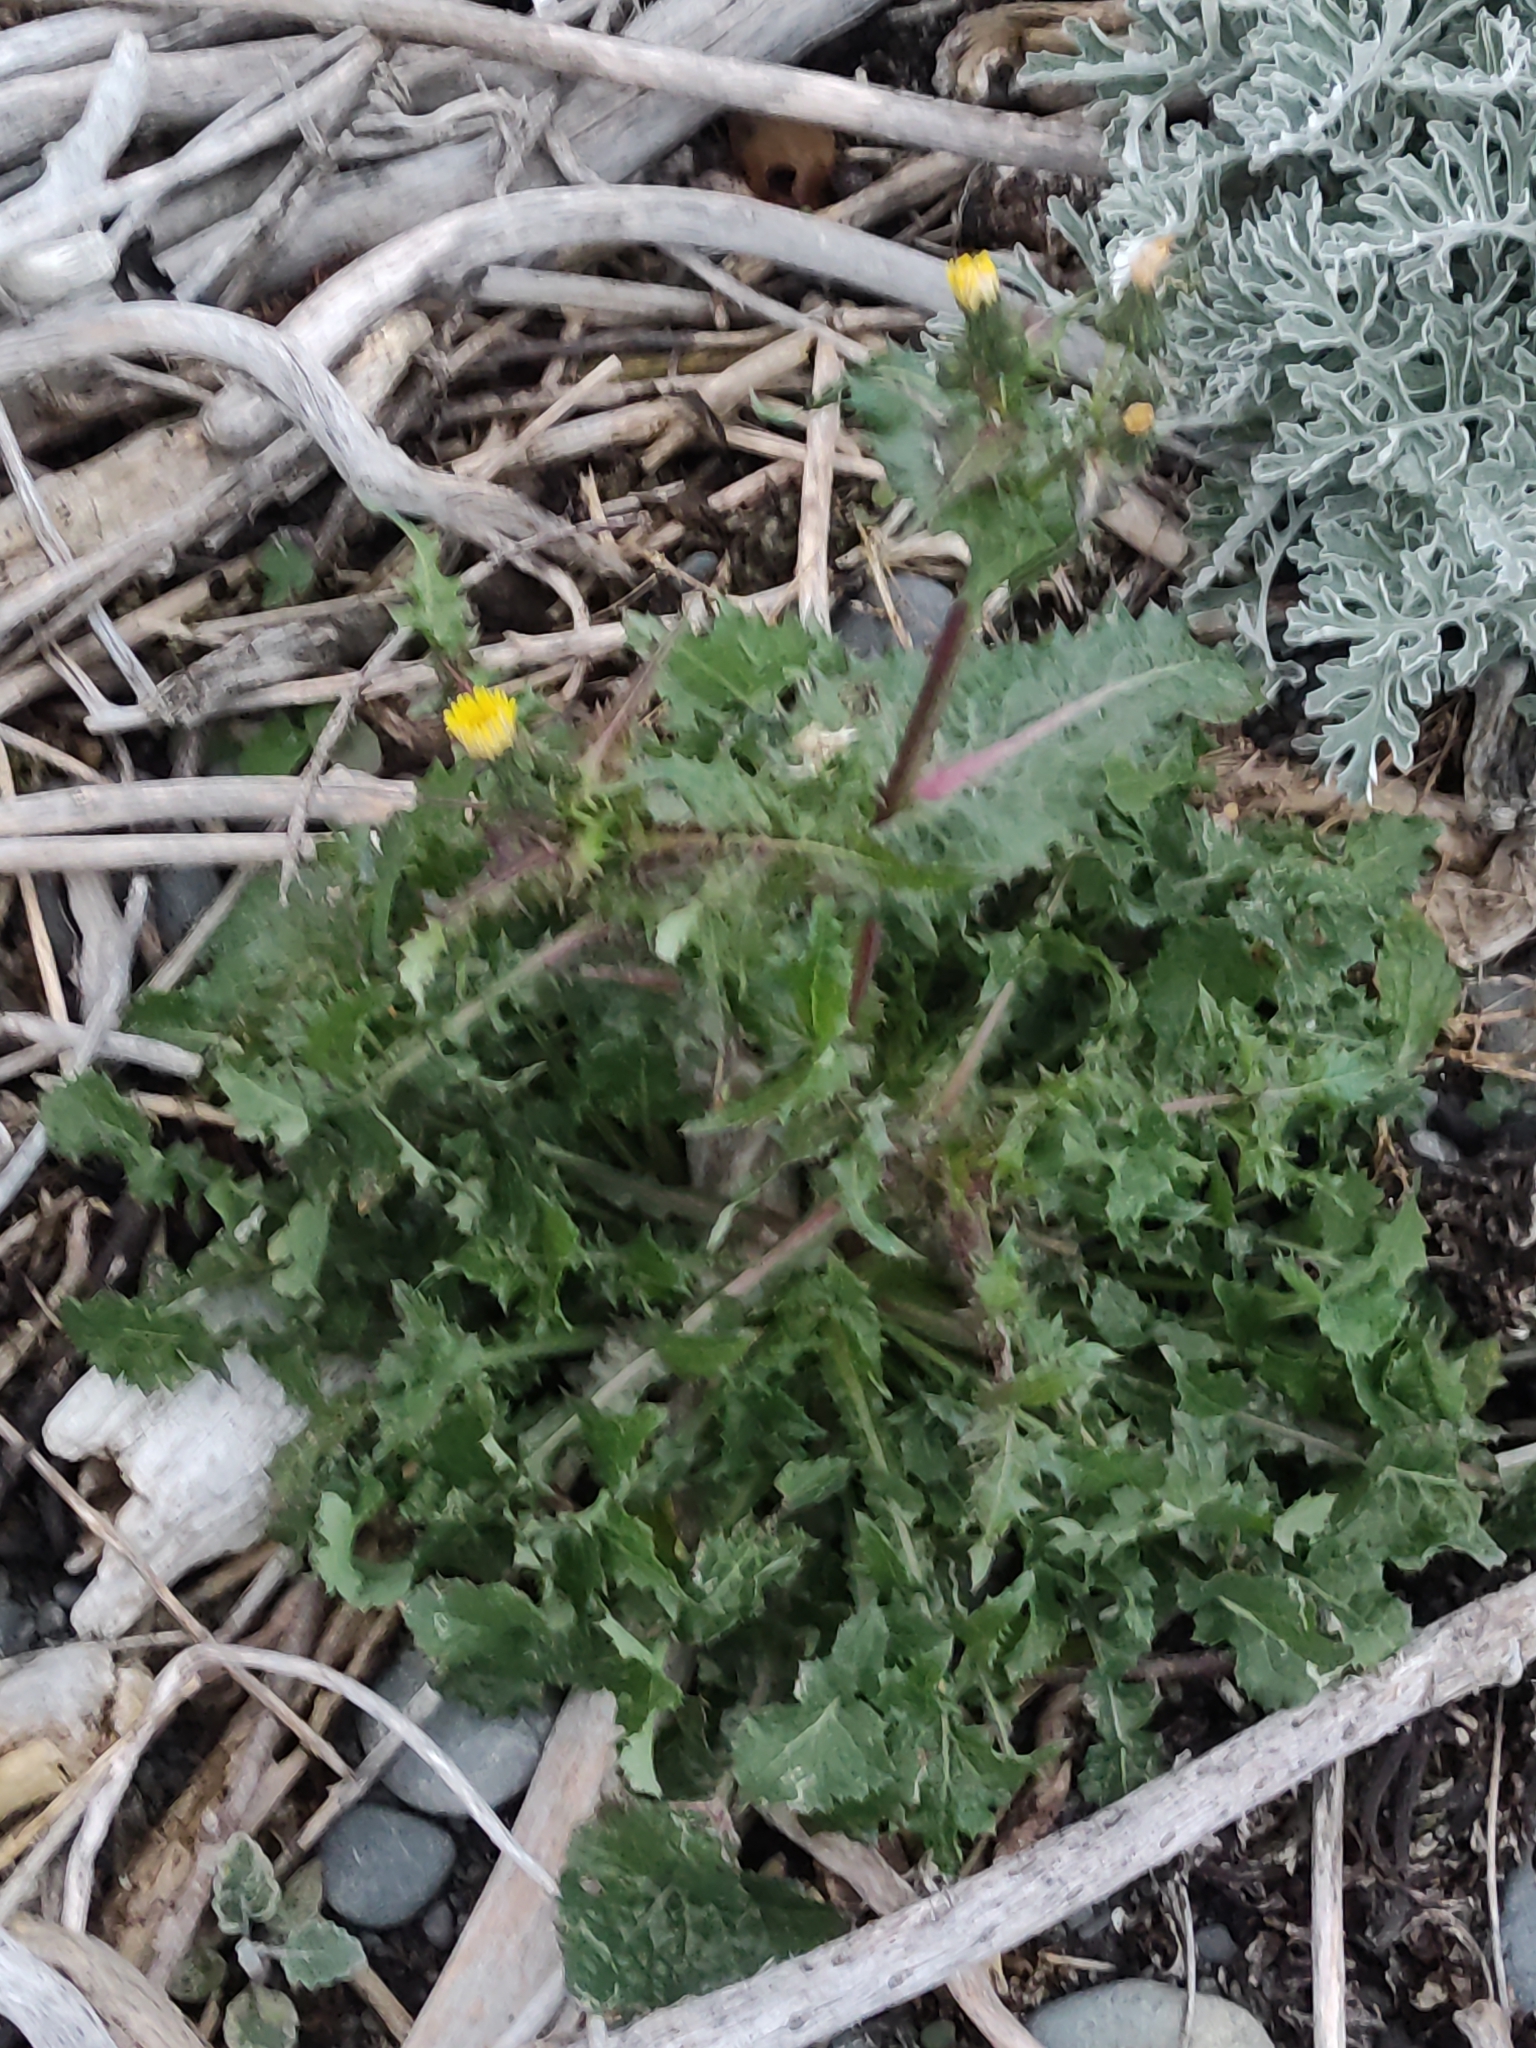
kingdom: Plantae
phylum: Tracheophyta
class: Magnoliopsida
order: Asterales
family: Asteraceae
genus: Sonchus
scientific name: Sonchus oleraceus
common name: Common sowthistle
